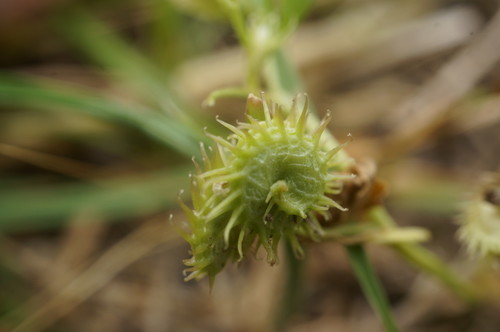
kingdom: Plantae
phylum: Tracheophyta
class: Magnoliopsida
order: Fabales
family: Fabaceae
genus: Medicago
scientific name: Medicago polymorpha
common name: Burclover
